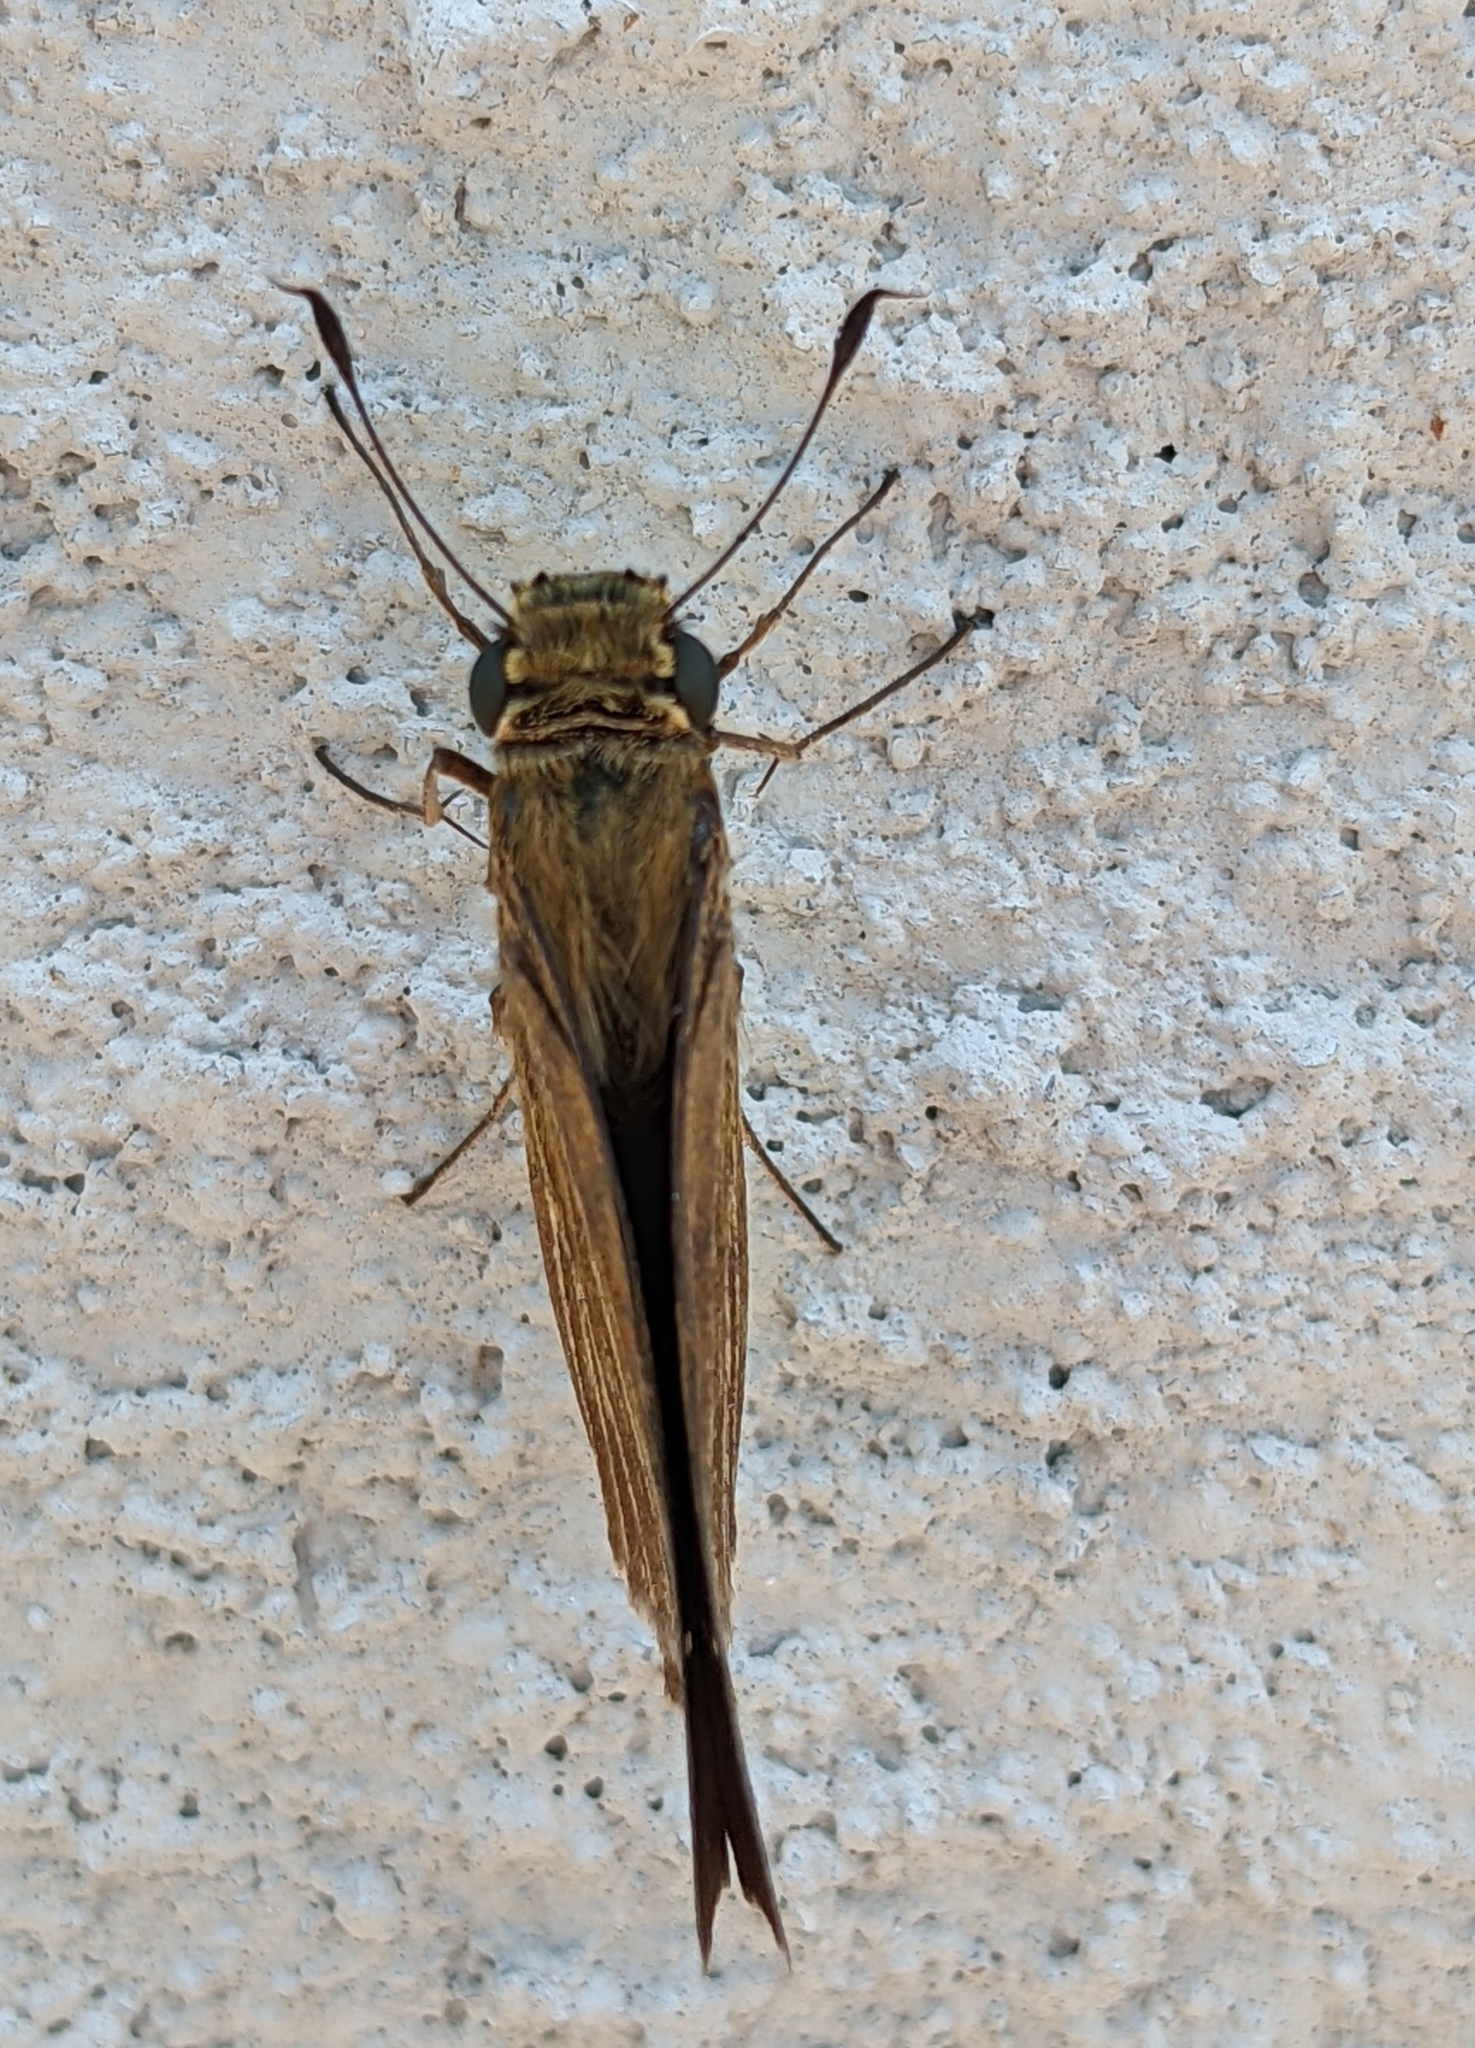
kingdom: Animalia
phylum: Arthropoda
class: Insecta
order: Lepidoptera
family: Hesperiidae
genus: Panoquina
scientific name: Panoquina ocola
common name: Ocola skipper
